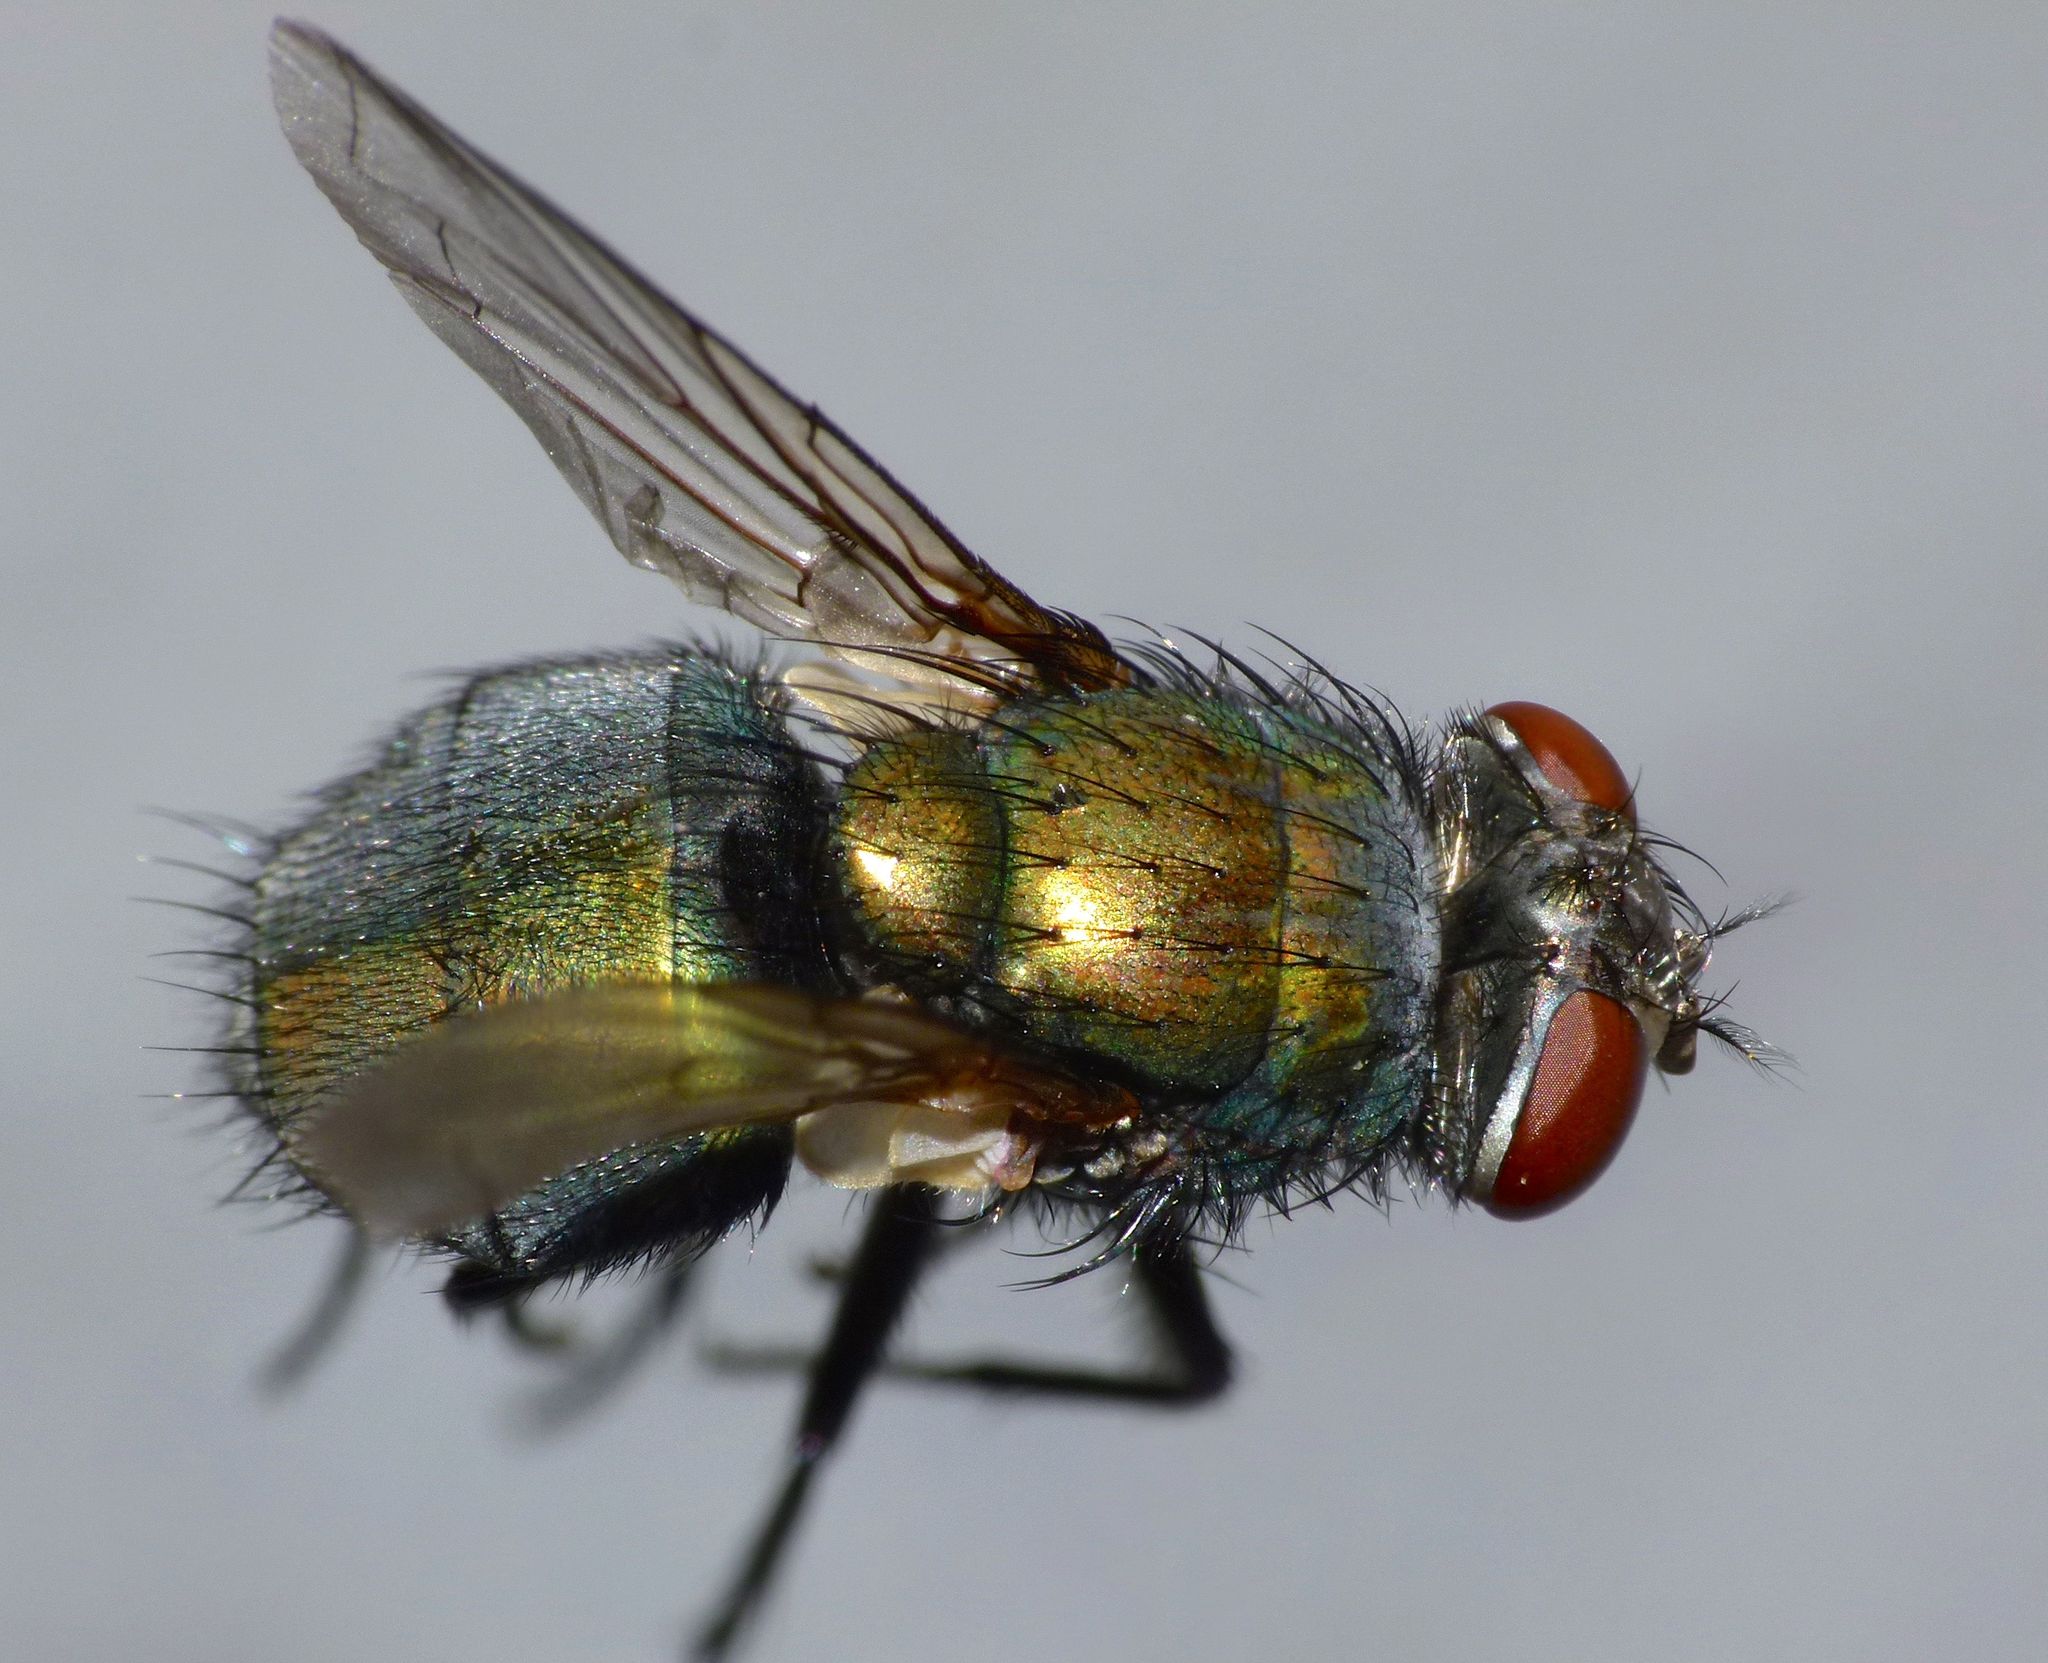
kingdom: Animalia
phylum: Arthropoda
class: Insecta
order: Diptera
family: Calliphoridae
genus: Lucilia
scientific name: Lucilia sericata
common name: Blow fly
